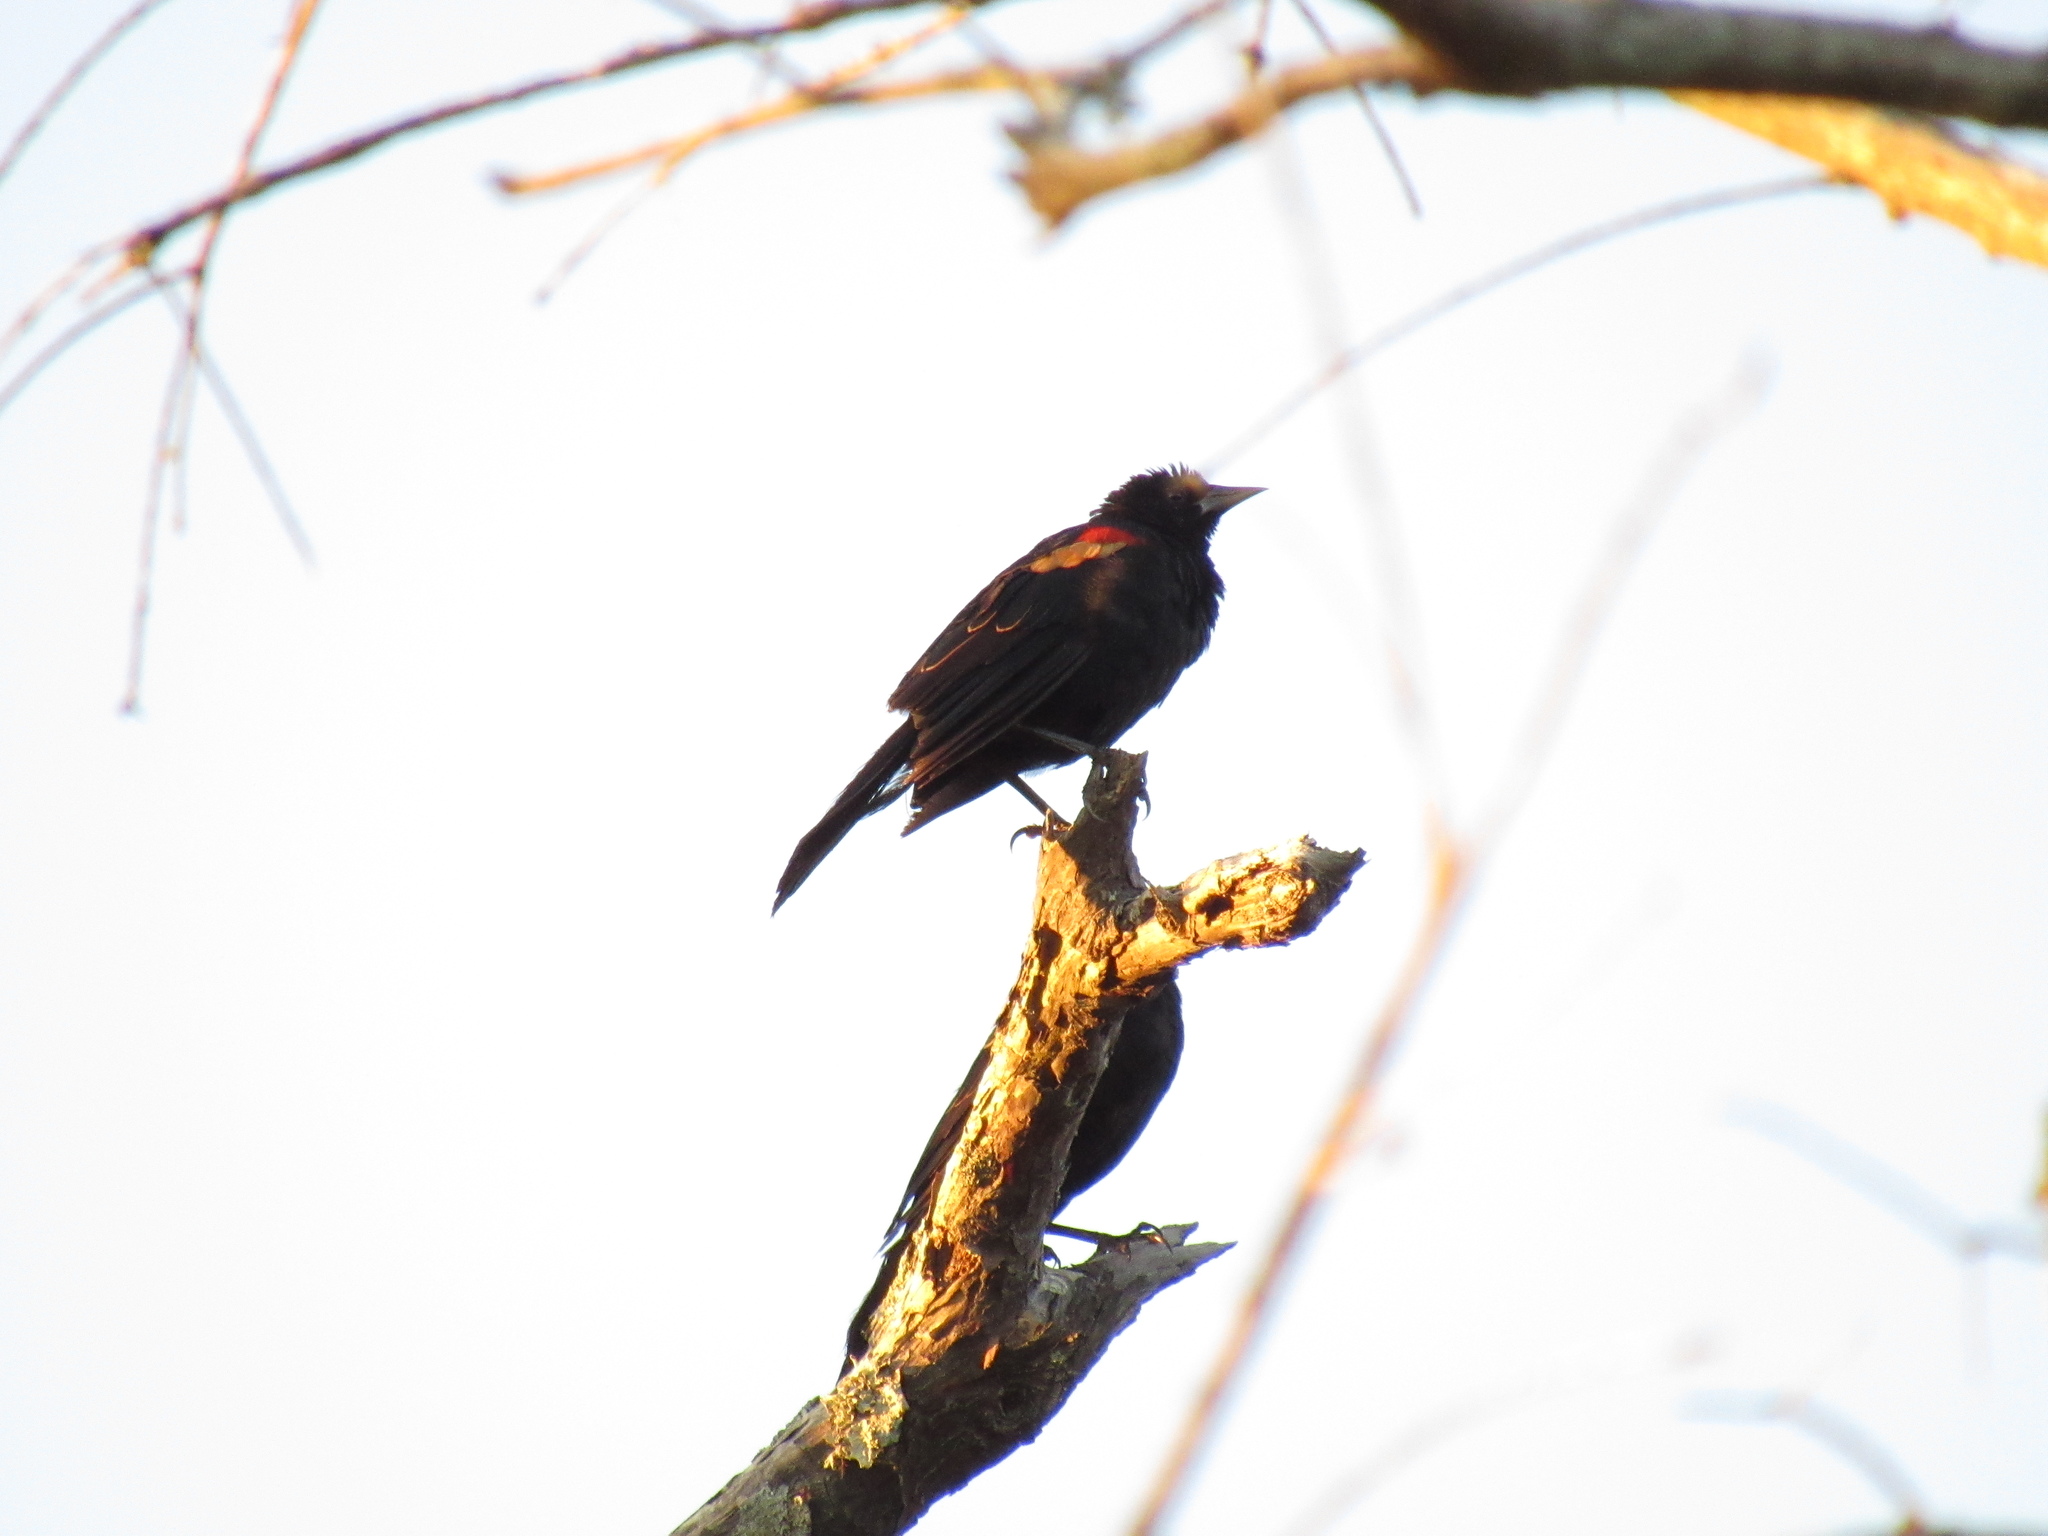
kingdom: Animalia
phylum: Chordata
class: Aves
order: Passeriformes
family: Icteridae
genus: Agelaius
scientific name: Agelaius phoeniceus
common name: Red-winged blackbird
